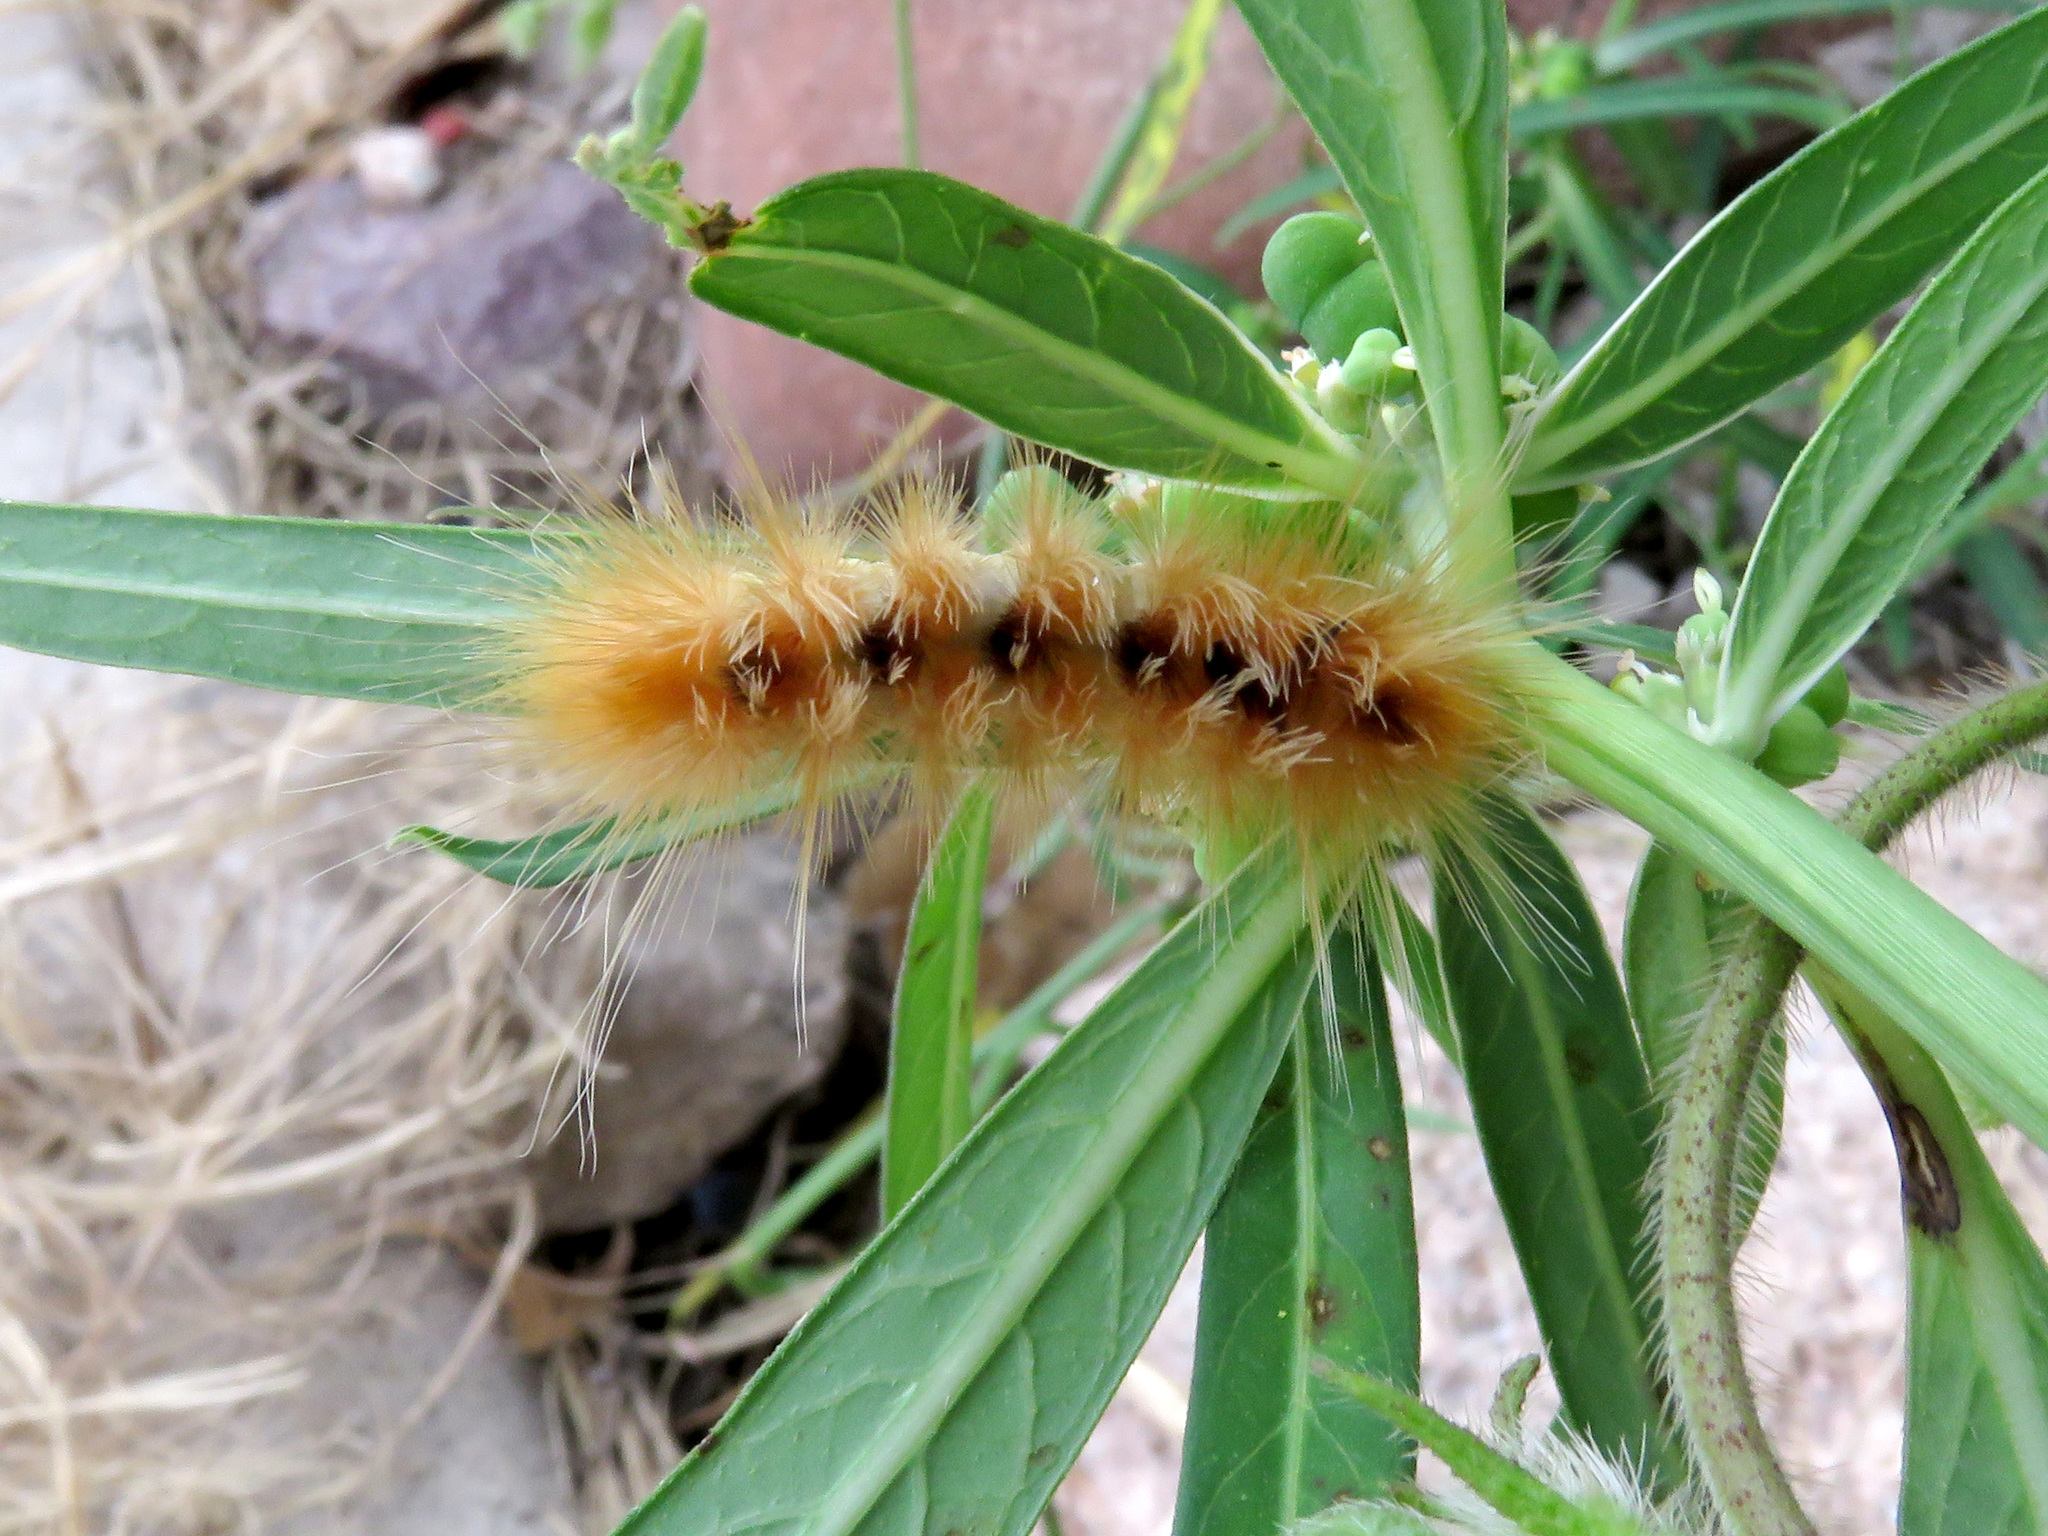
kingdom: Animalia
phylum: Arthropoda
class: Insecta
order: Lepidoptera
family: Erebidae
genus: Pygarctia
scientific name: Pygarctia roseicapitis
